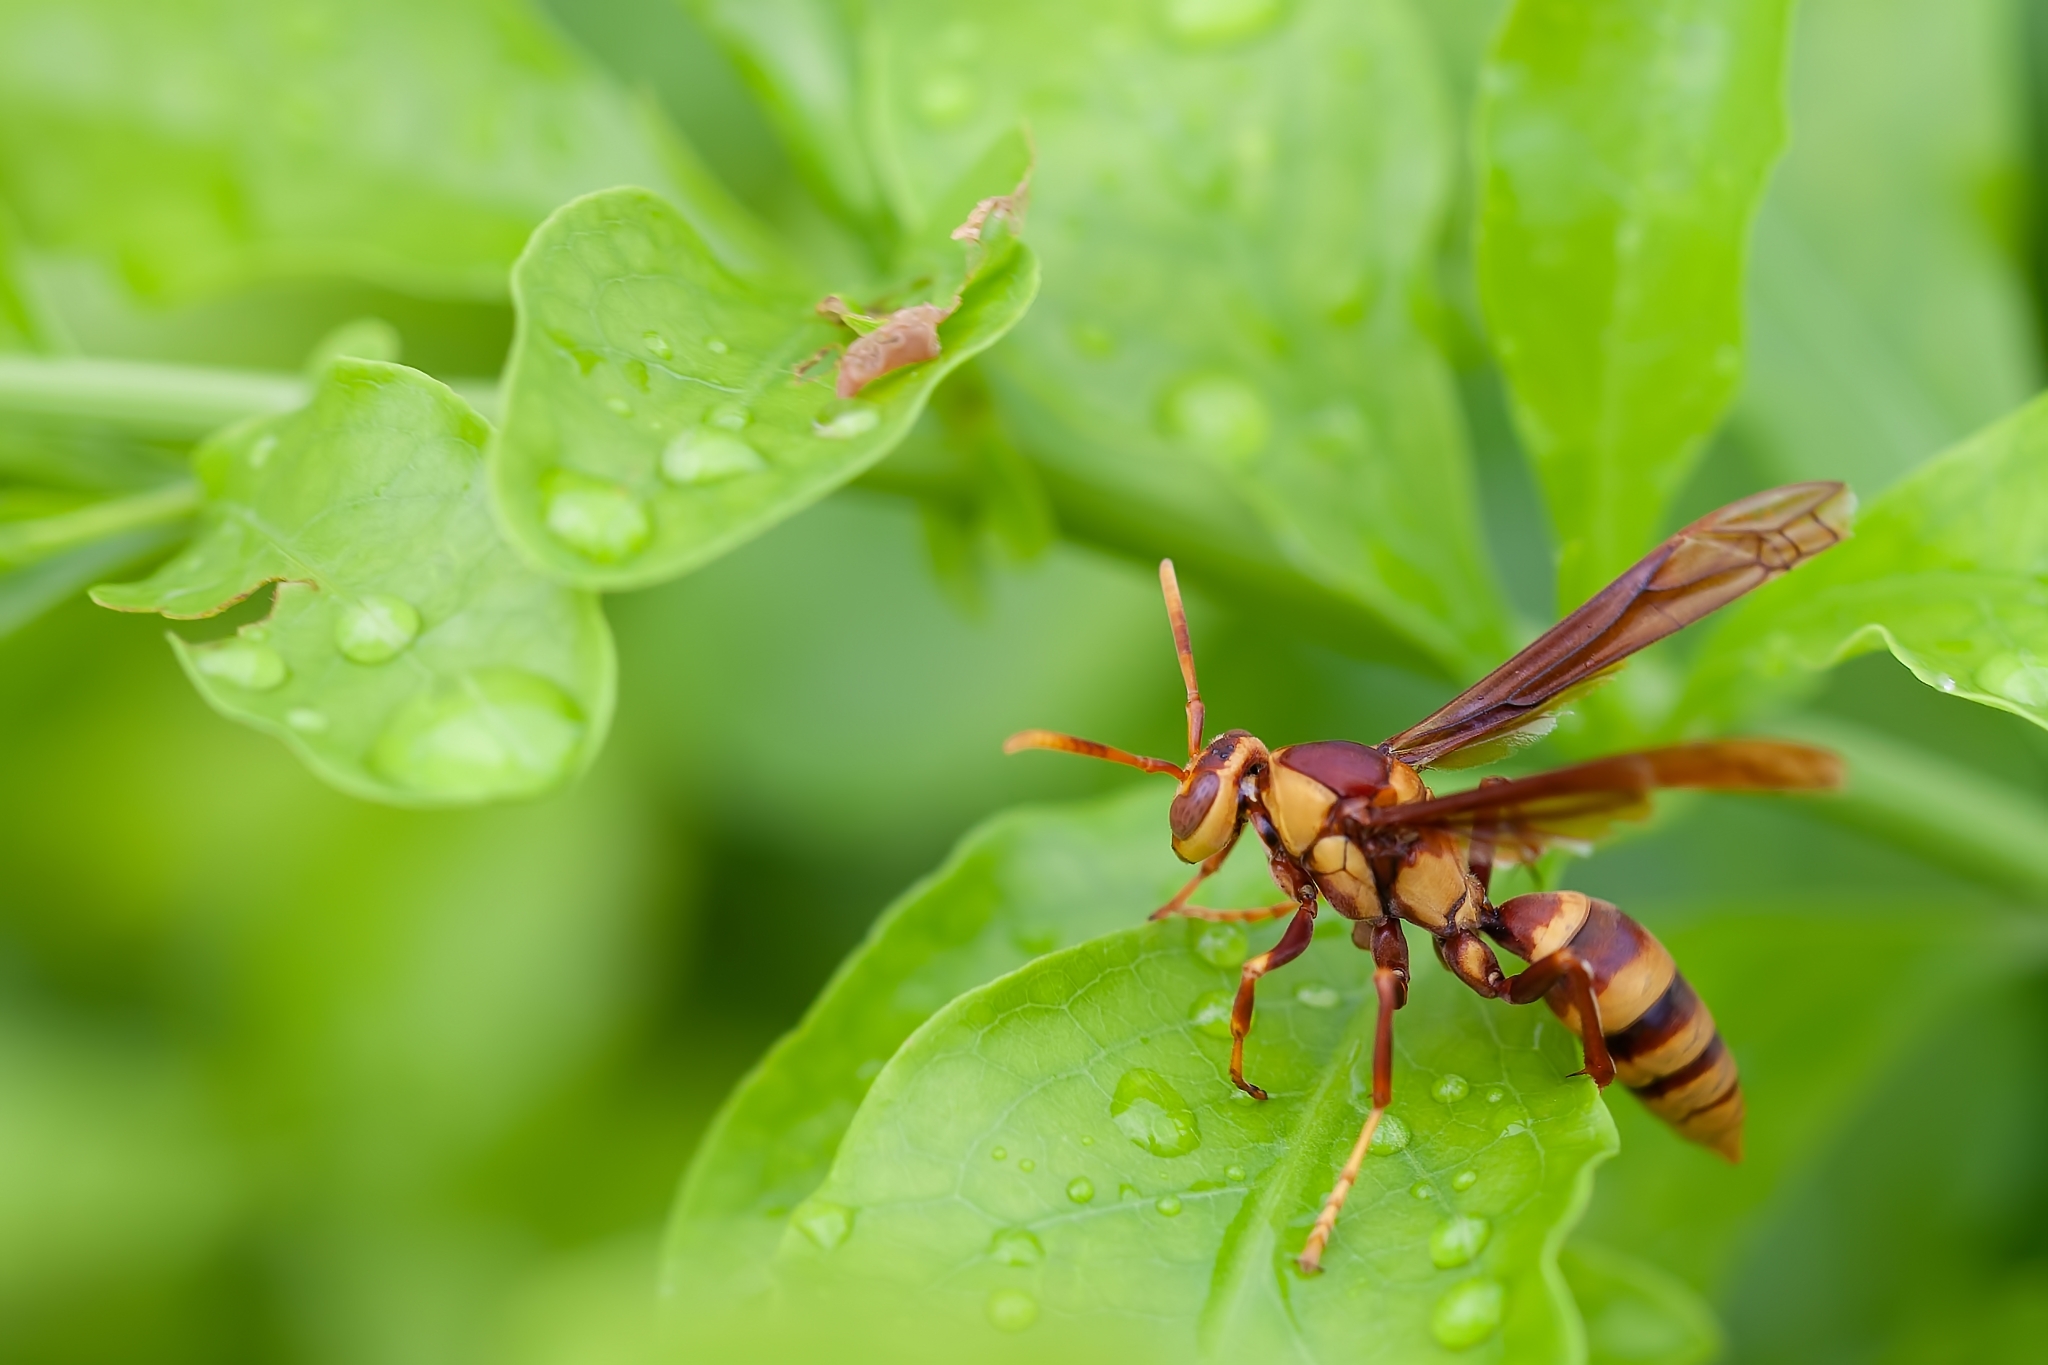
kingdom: Animalia
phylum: Arthropoda
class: Insecta
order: Hymenoptera
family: Eumenidae
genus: Polistes
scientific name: Polistes major
